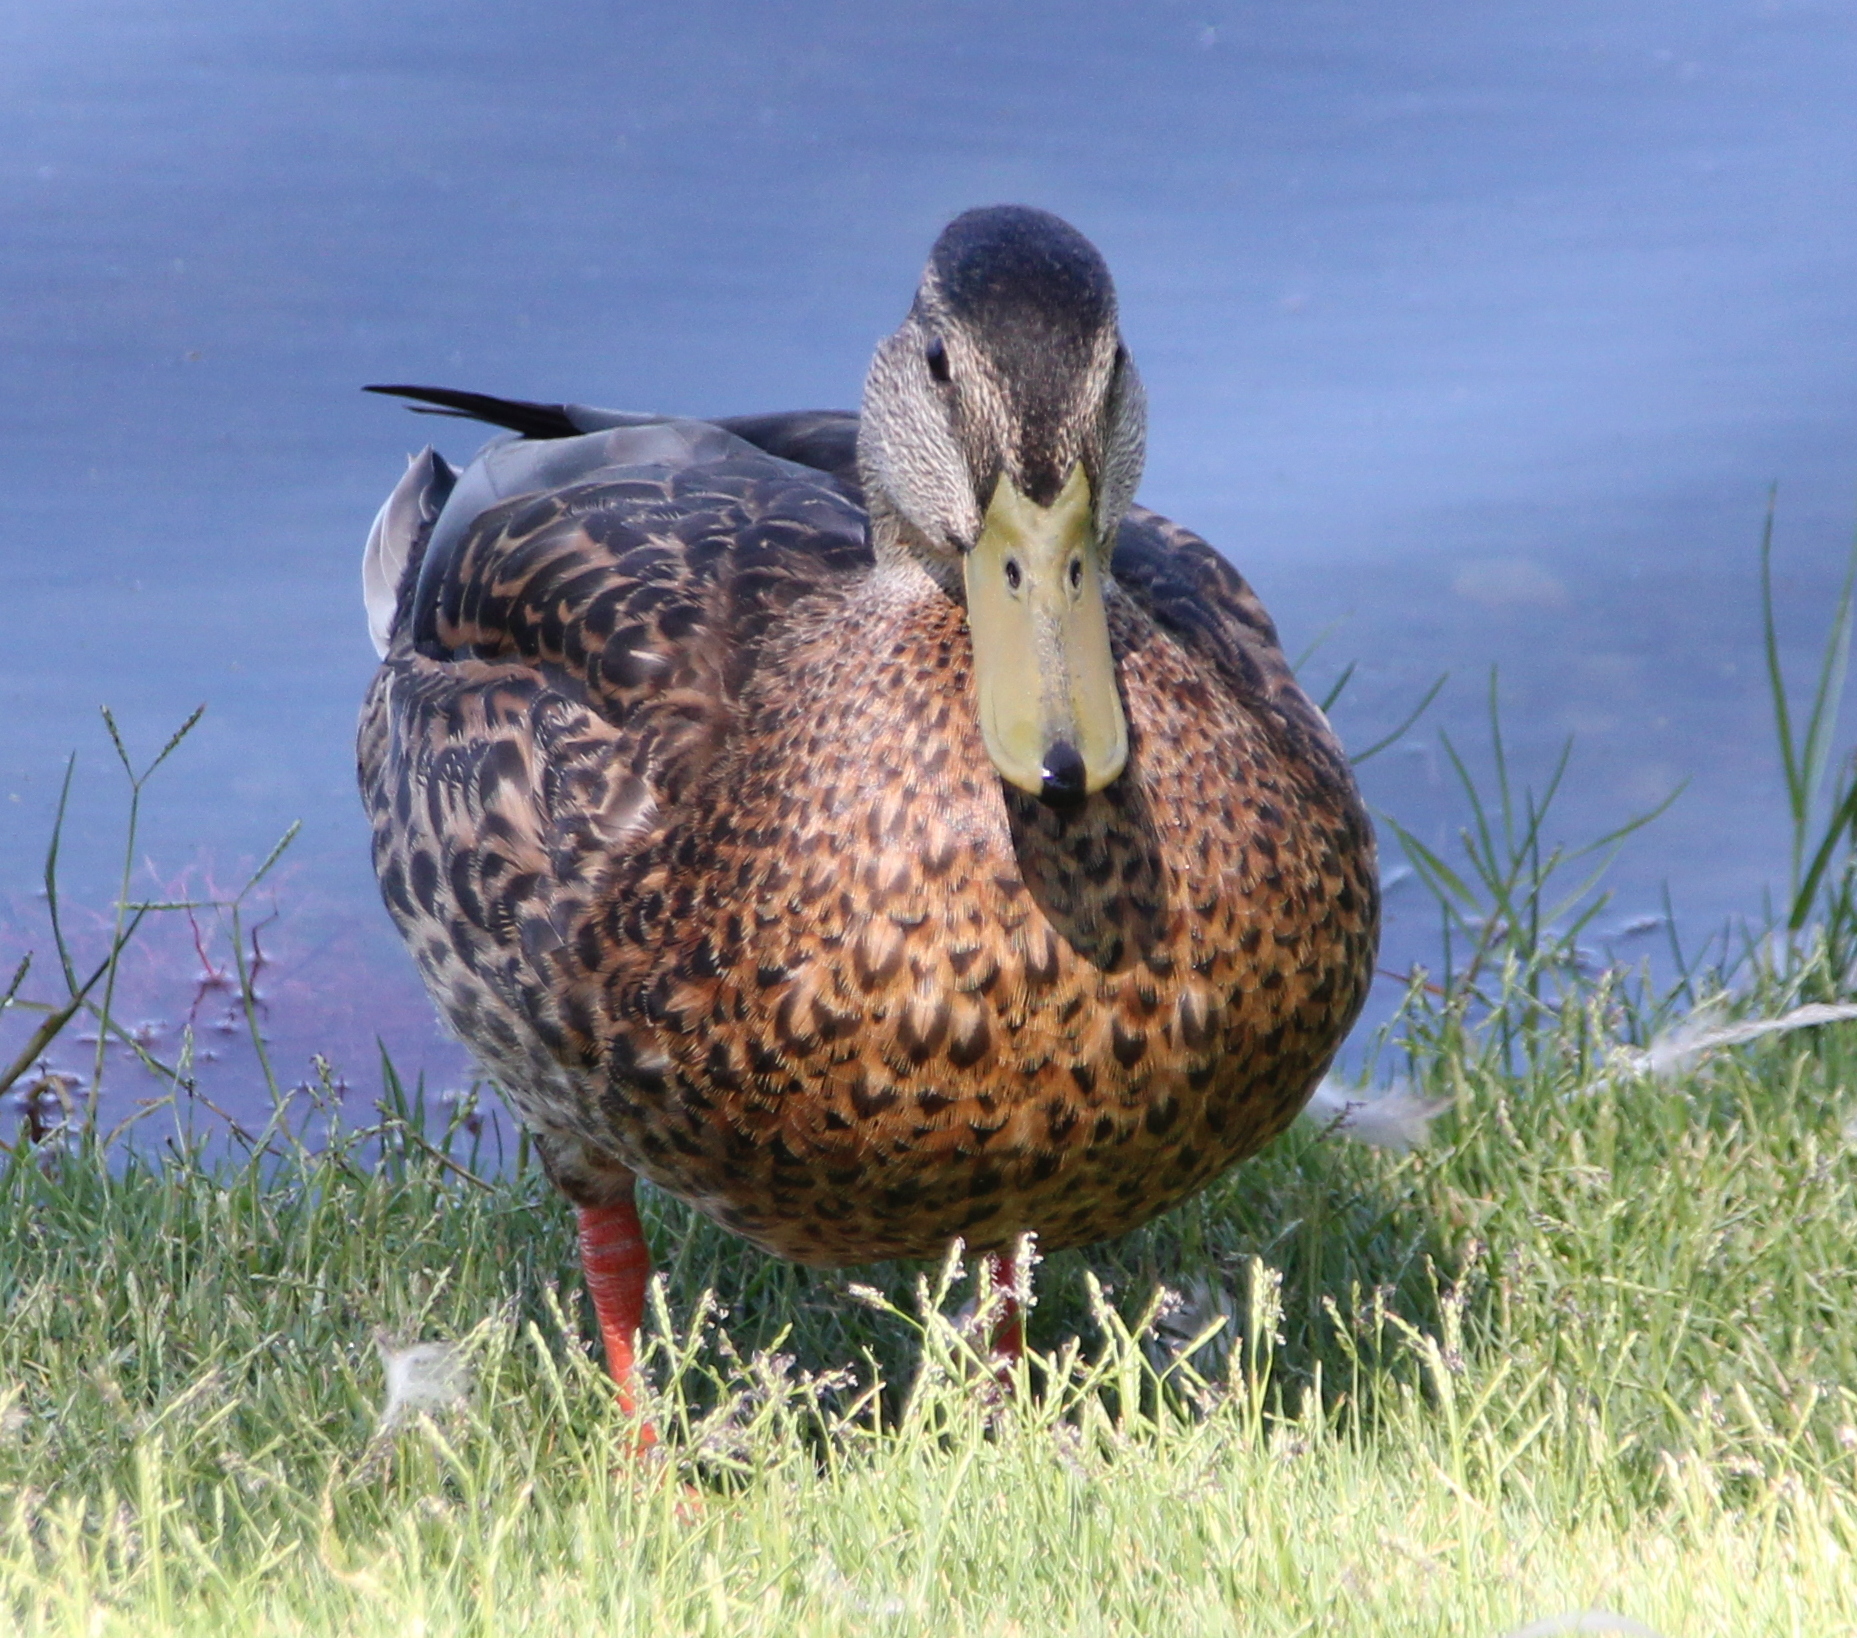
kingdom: Animalia
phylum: Chordata
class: Aves
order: Anseriformes
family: Anatidae
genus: Anas
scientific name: Anas platyrhynchos
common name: Mallard
